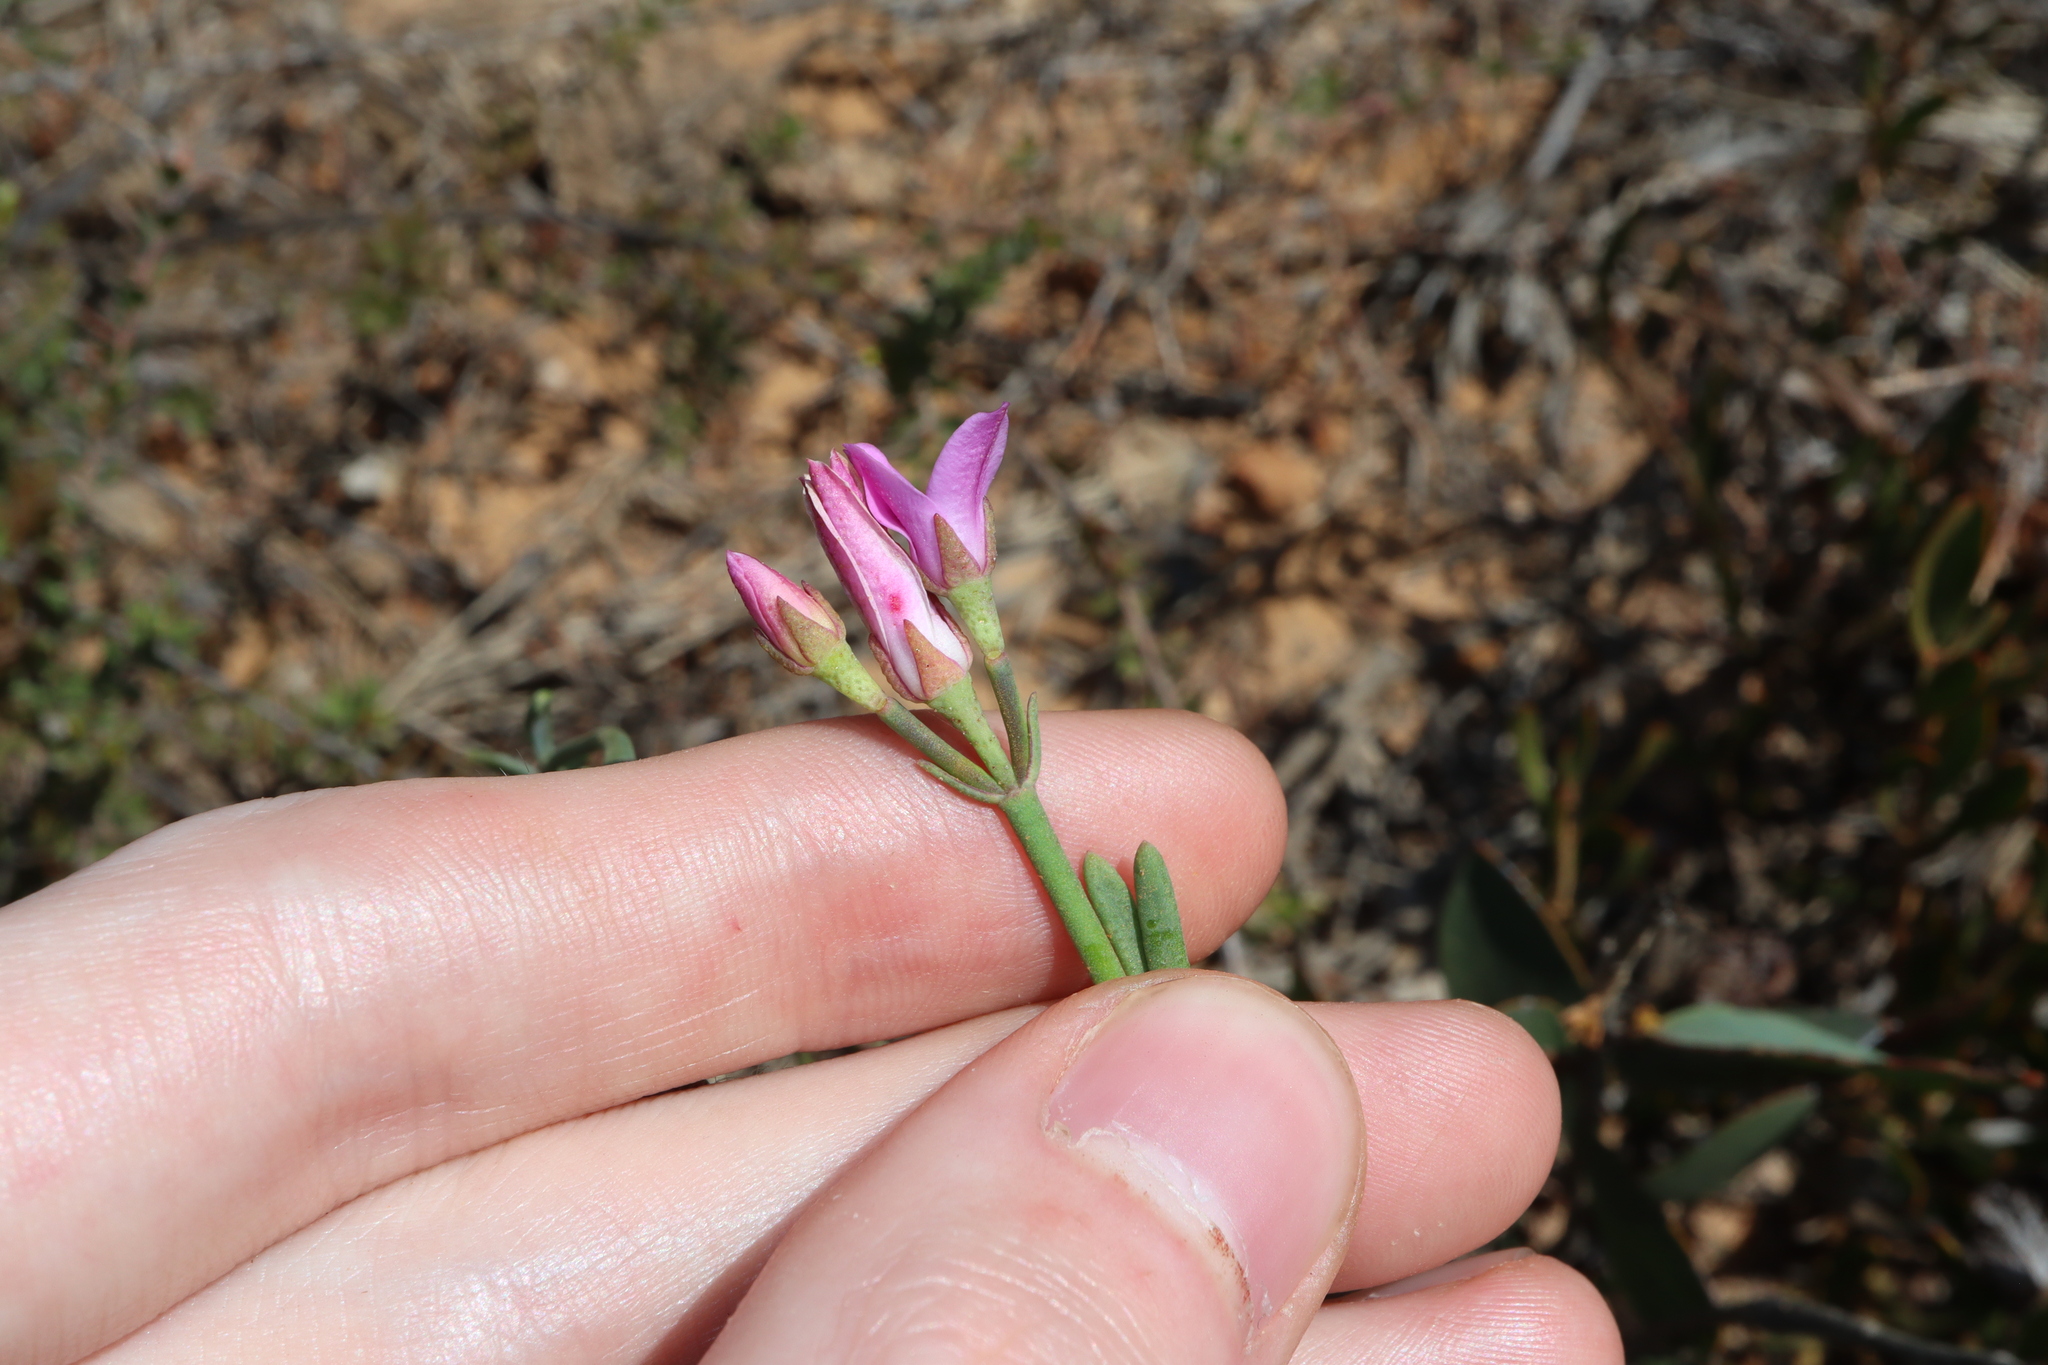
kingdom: Plantae
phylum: Tracheophyta
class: Magnoliopsida
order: Sapindales
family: Rutaceae
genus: Boronia
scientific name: Boronia spathulata
